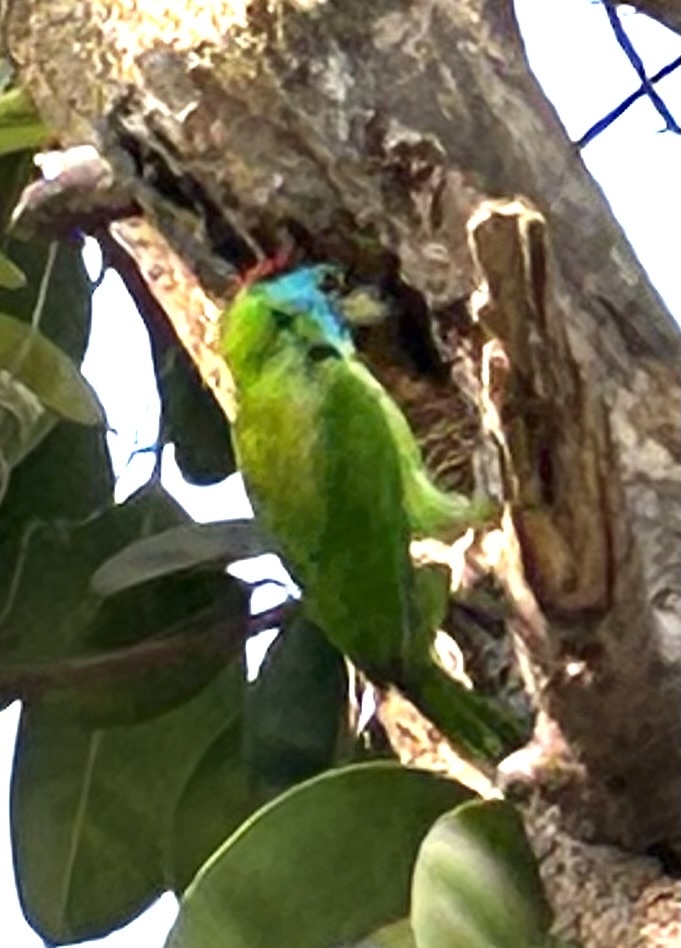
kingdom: Animalia
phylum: Chordata
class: Aves
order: Piciformes
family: Megalaimidae
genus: Psilopogon
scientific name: Psilopogon asiaticus
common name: Blue-throated barbet
